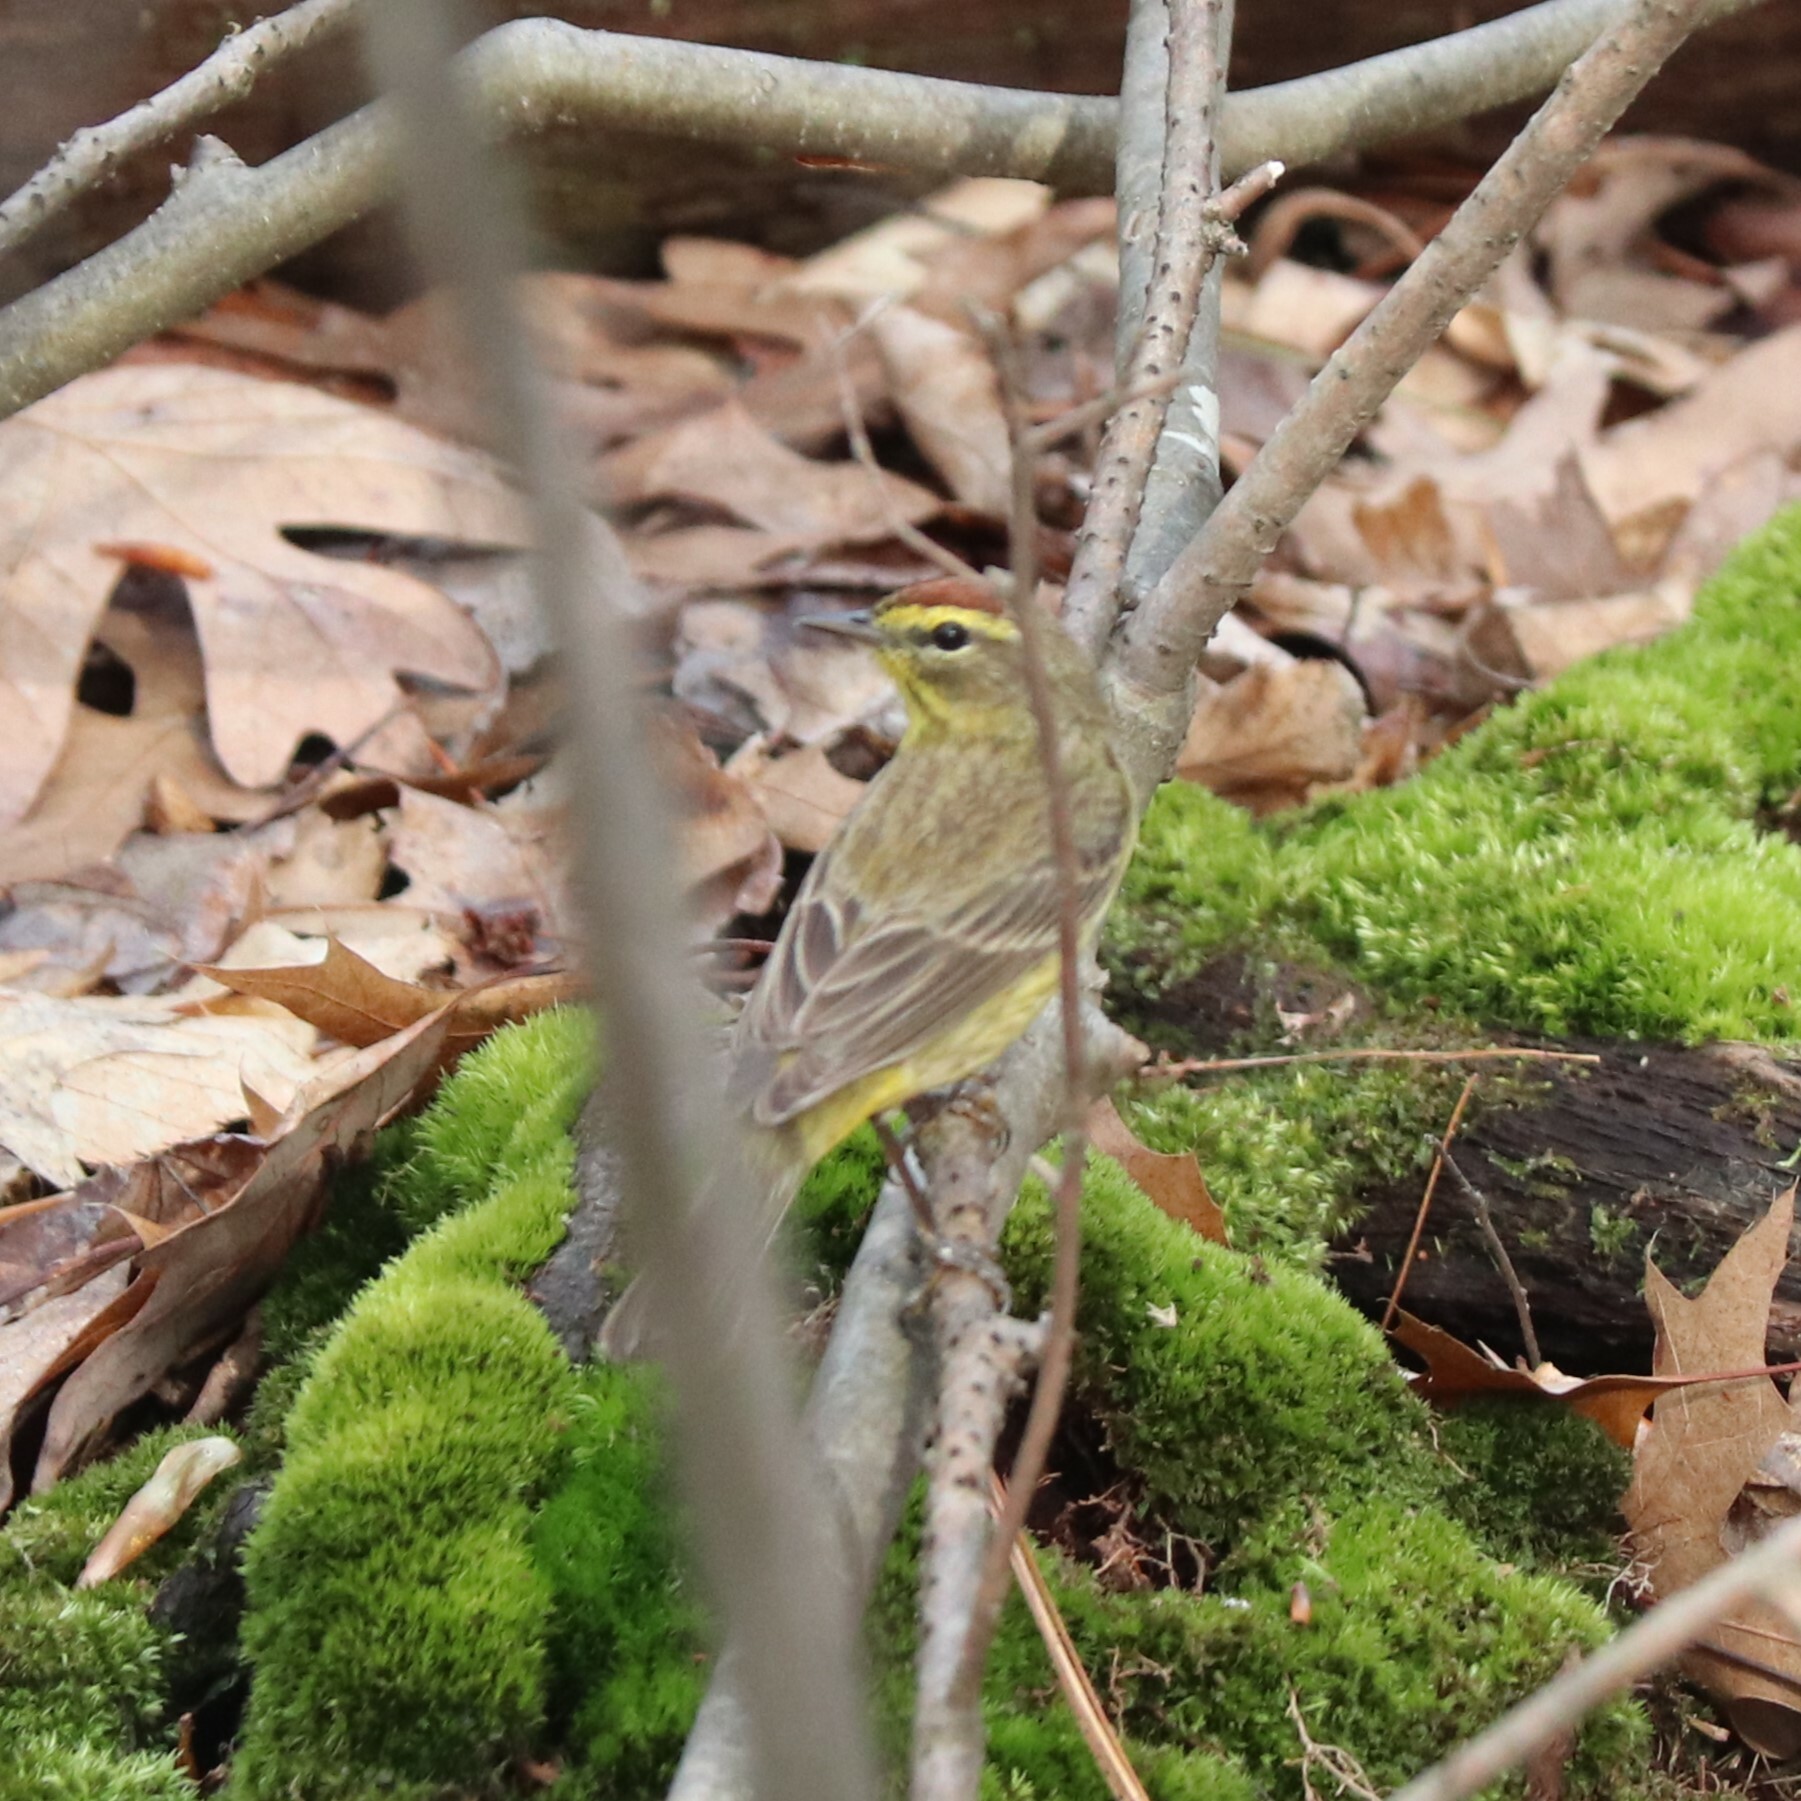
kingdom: Animalia
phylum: Chordata
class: Aves
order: Passeriformes
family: Parulidae
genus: Setophaga
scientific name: Setophaga palmarum
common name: Palm warbler
